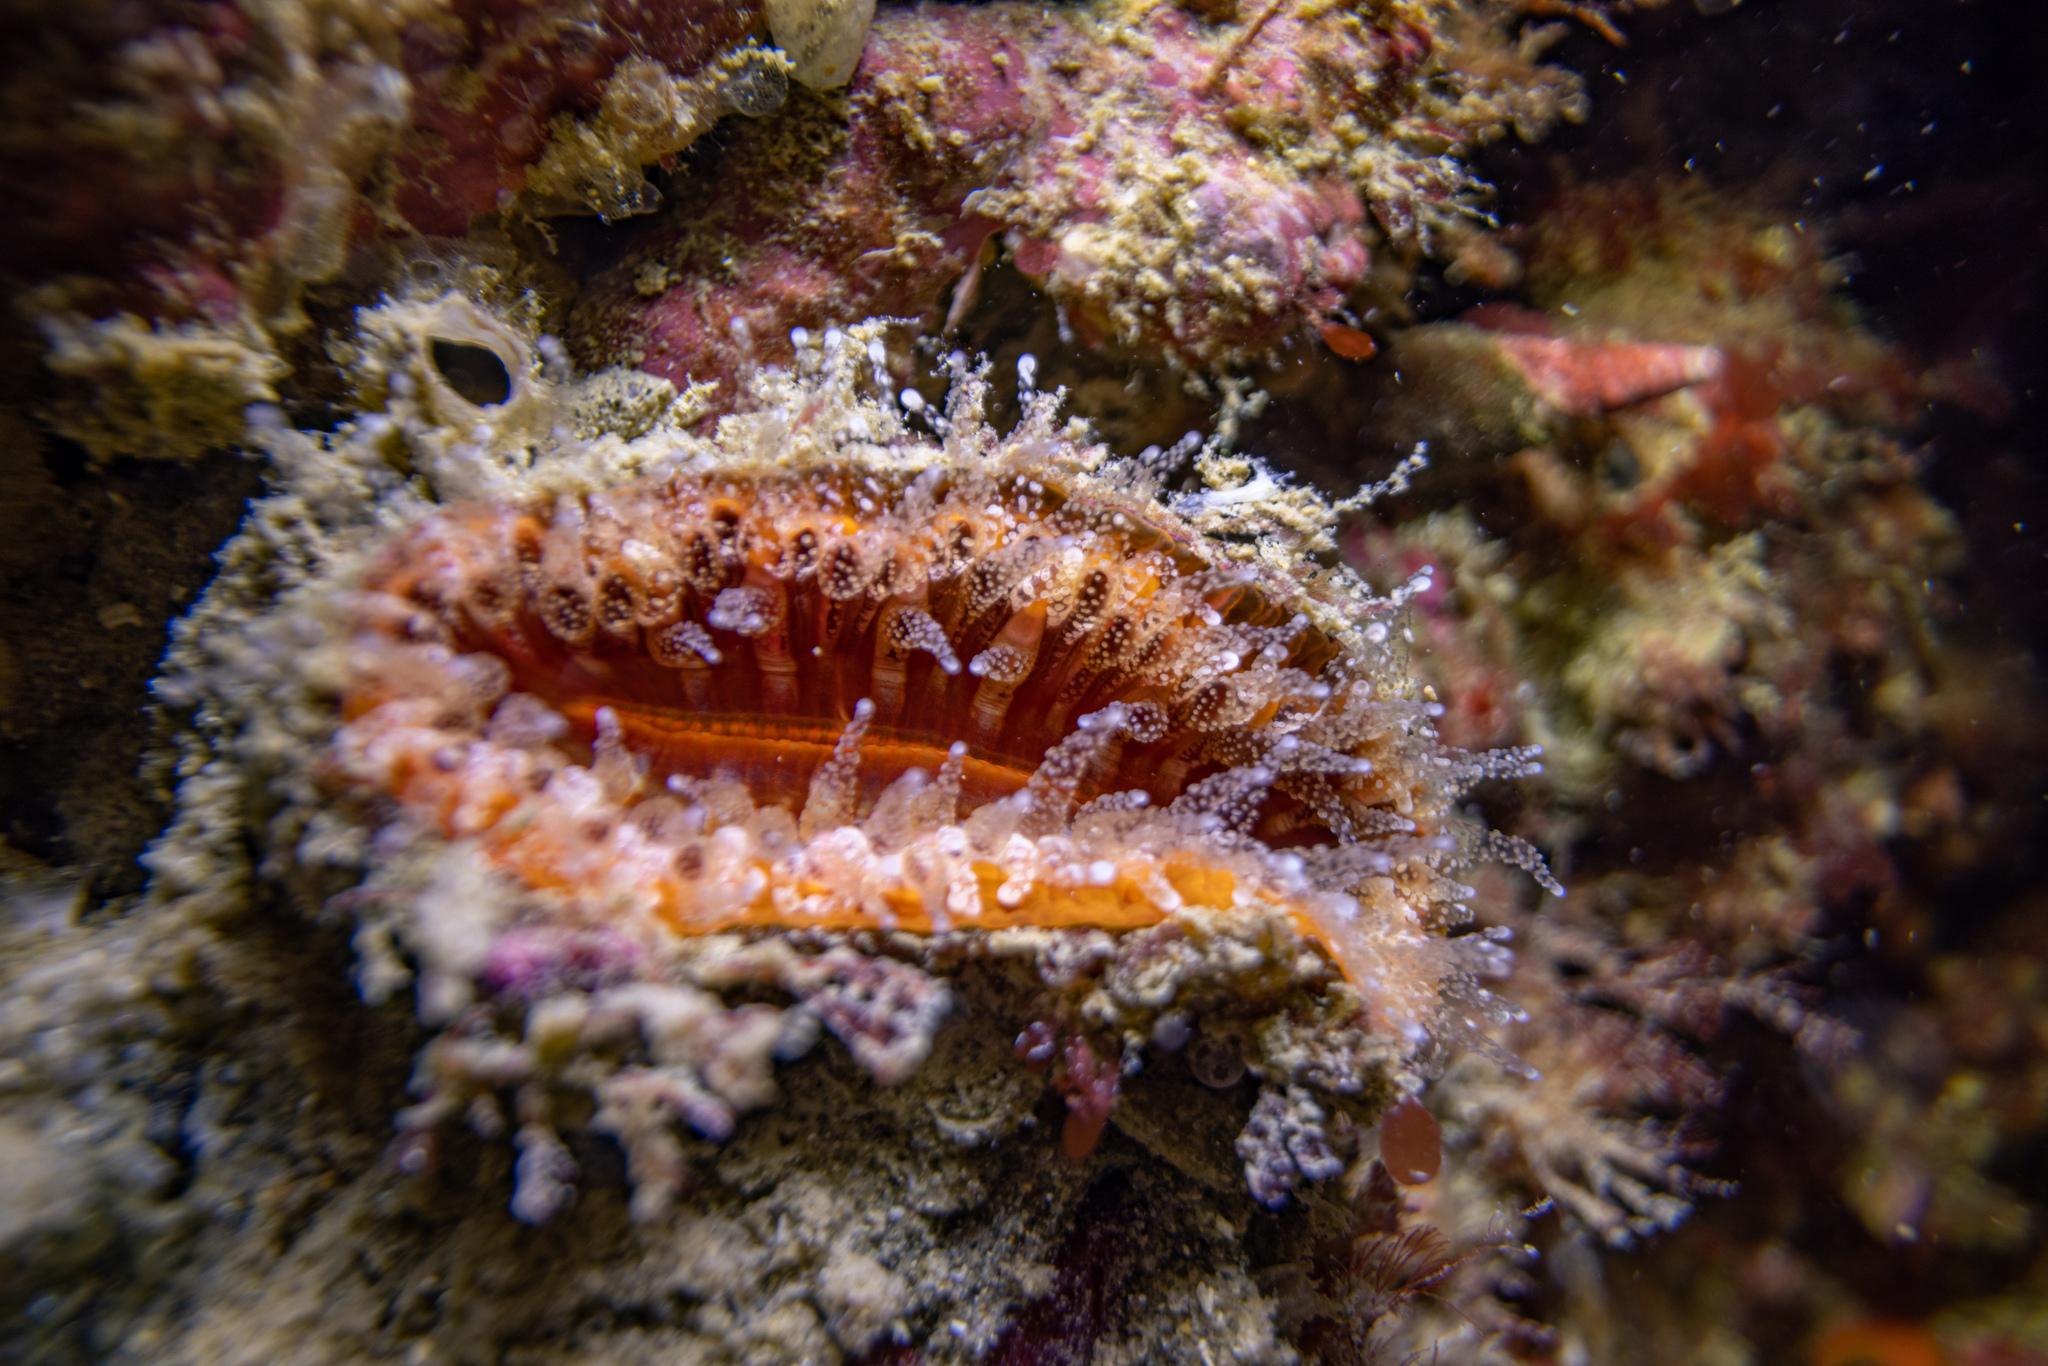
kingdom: Animalia
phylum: Cnidaria
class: Anthozoa
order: Scleractinia
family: Flabellidae
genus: Monomyces
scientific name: Monomyces rubrum
